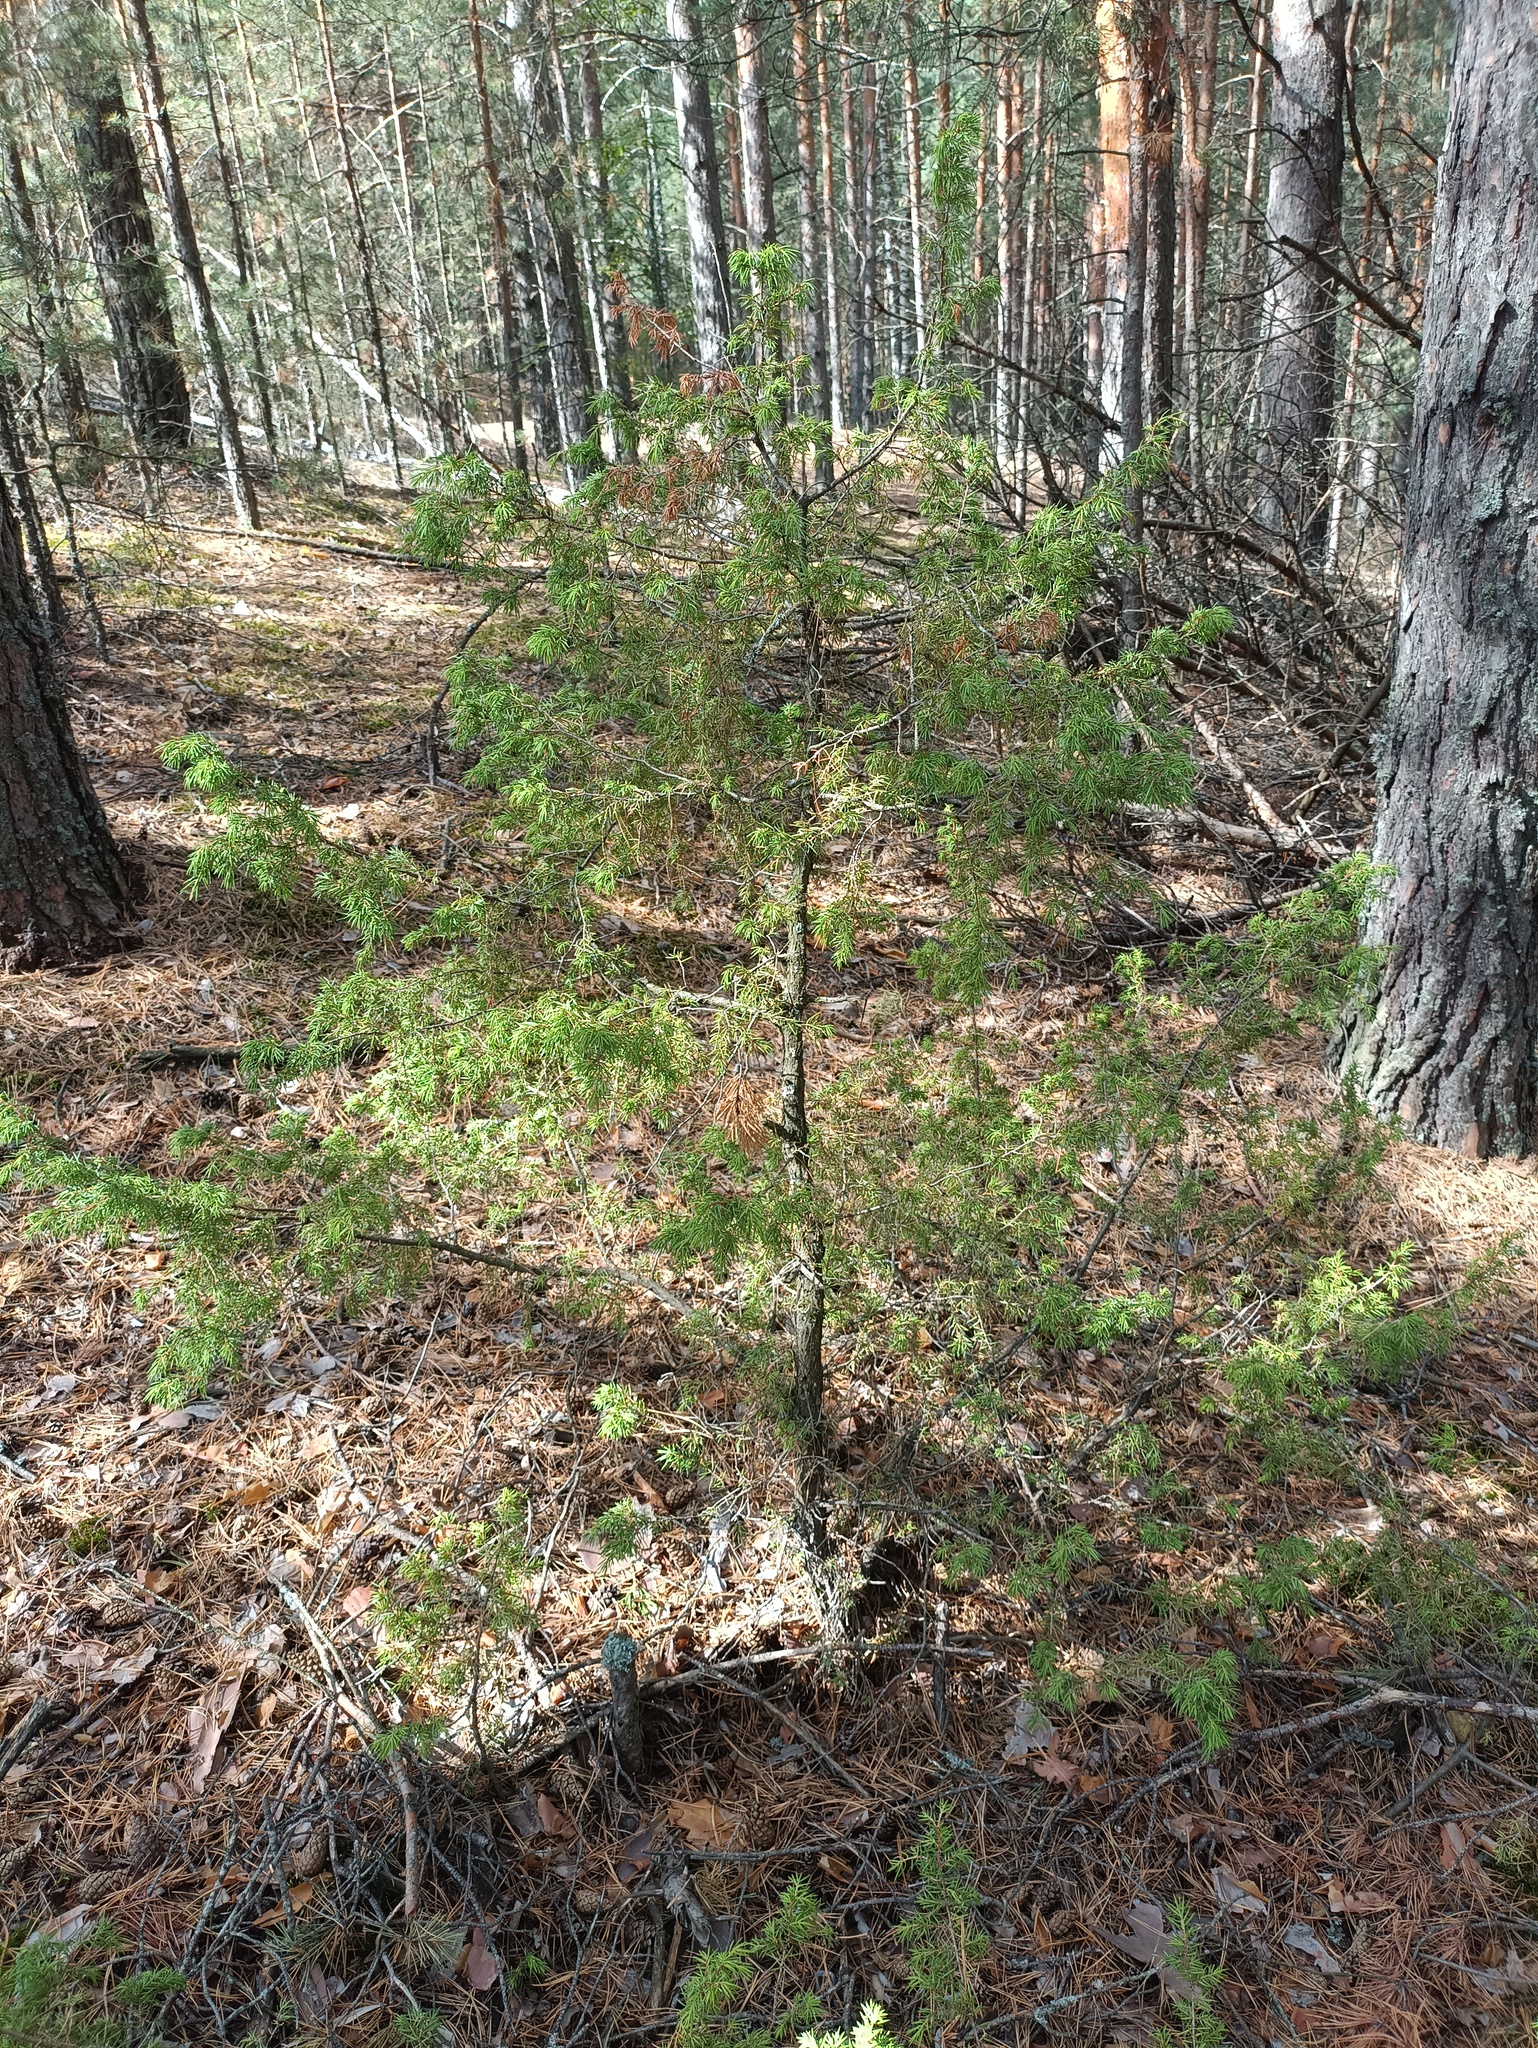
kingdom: Plantae
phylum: Tracheophyta
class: Pinopsida
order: Pinales
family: Cupressaceae
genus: Juniperus
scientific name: Juniperus communis
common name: Common juniper
